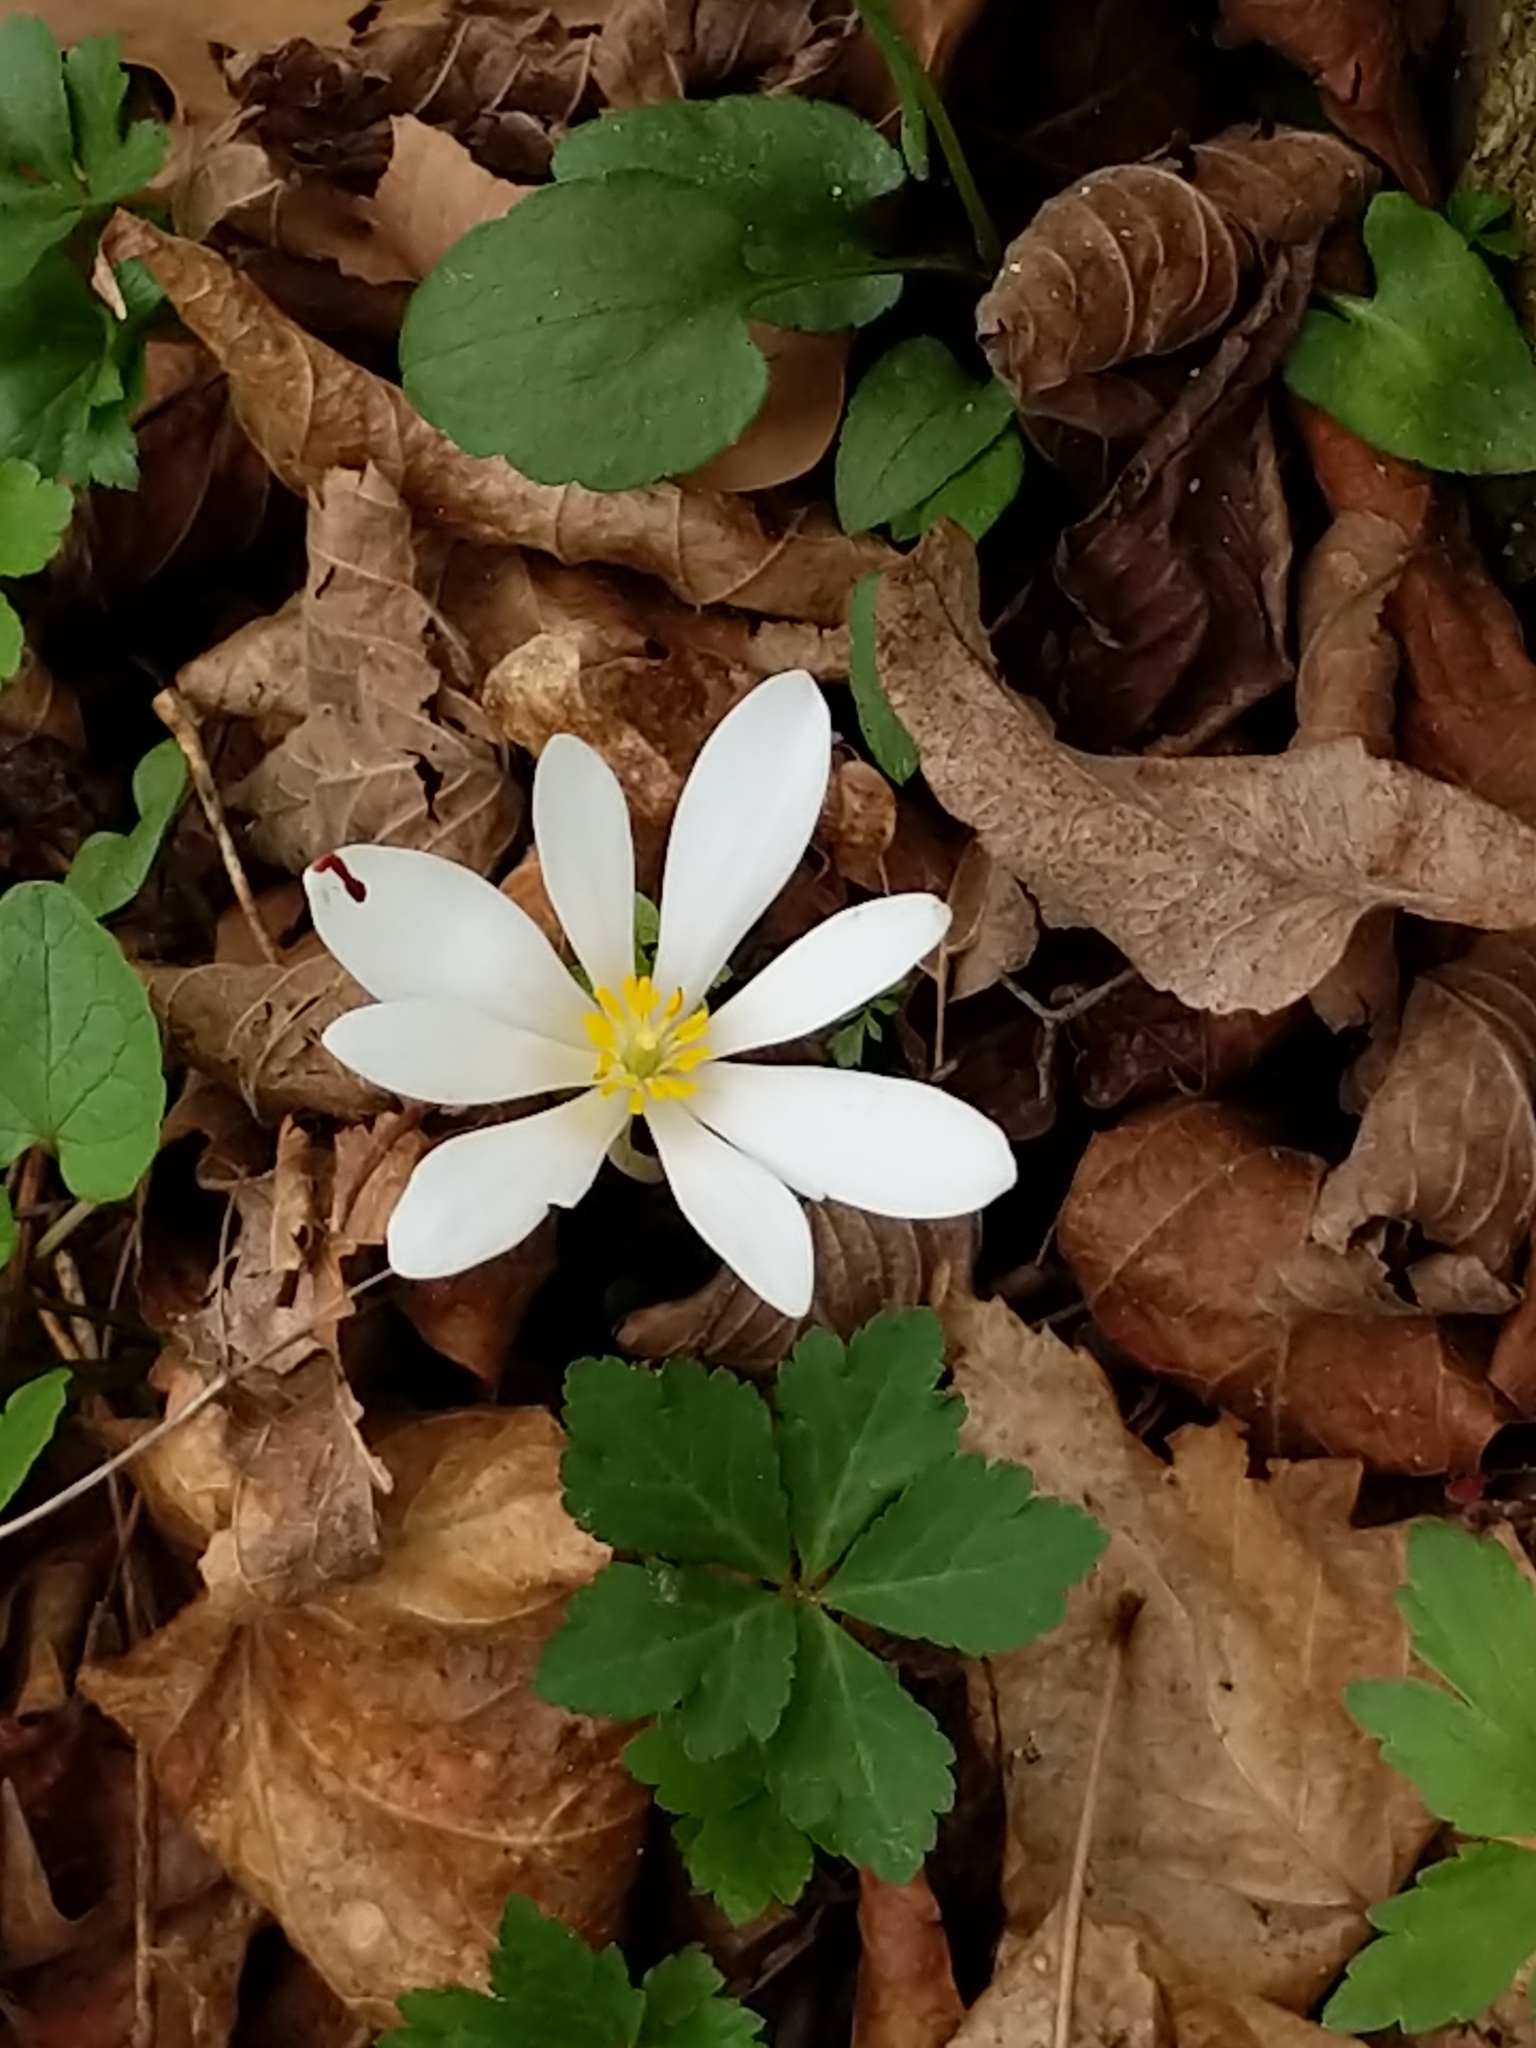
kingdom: Plantae
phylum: Tracheophyta
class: Magnoliopsida
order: Ranunculales
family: Papaveraceae
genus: Sanguinaria
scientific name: Sanguinaria canadensis
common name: Bloodroot
